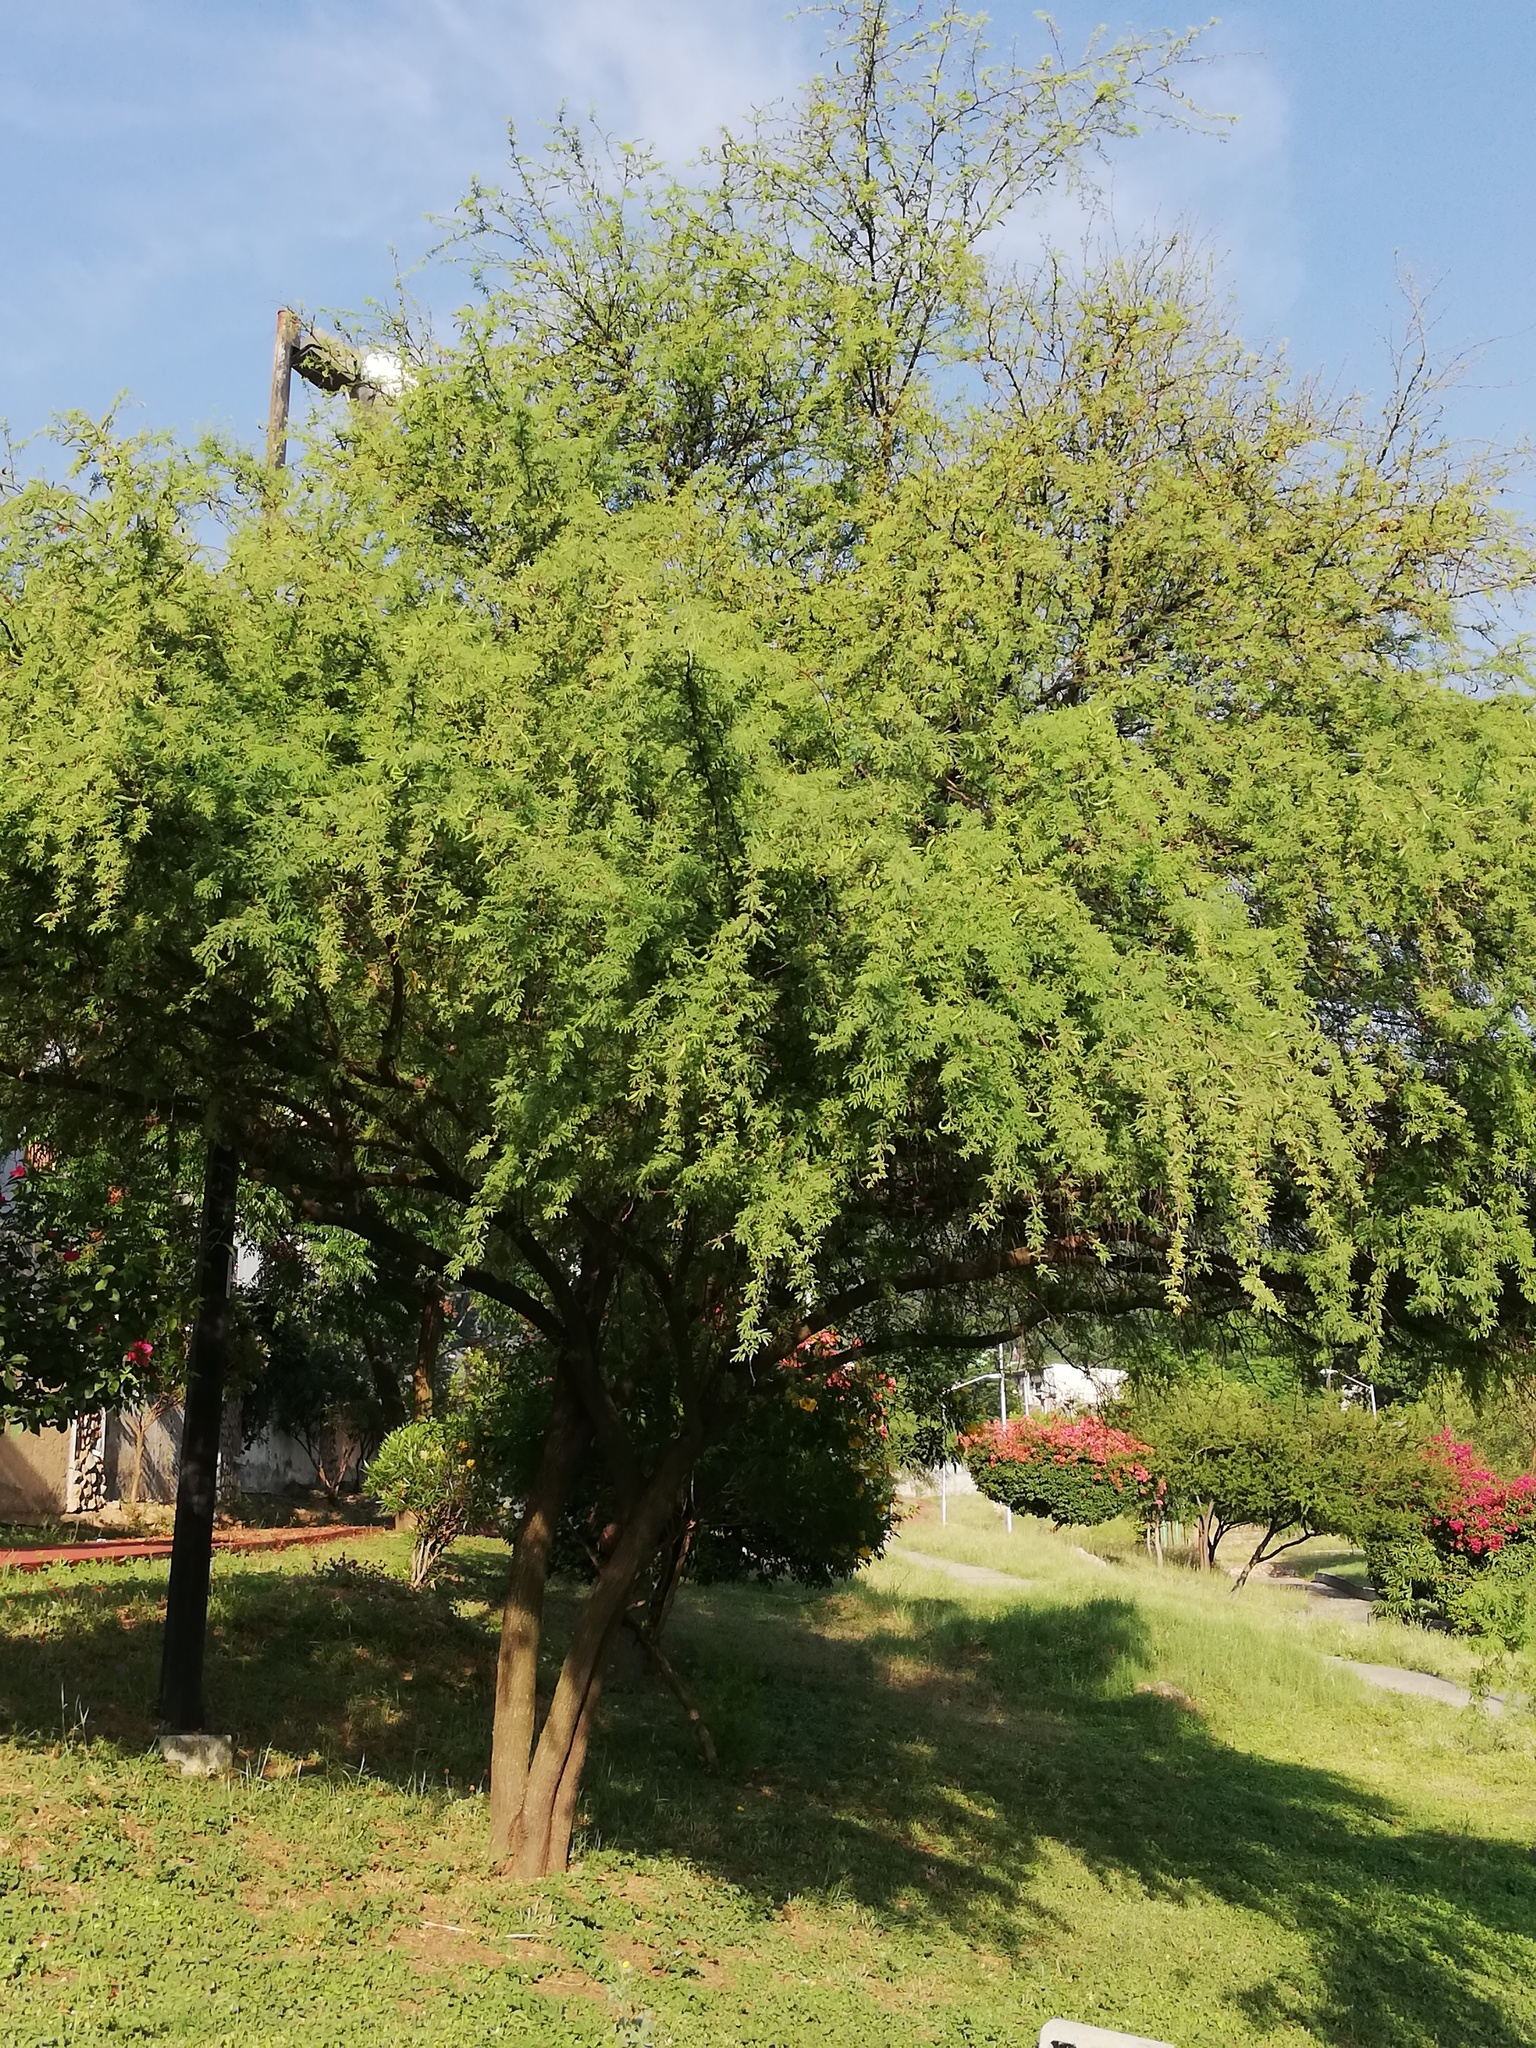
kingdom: Plantae
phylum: Tracheophyta
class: Magnoliopsida
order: Fabales
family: Fabaceae
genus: Vachellia
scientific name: Vachellia farnesiana
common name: Sweet acacia
